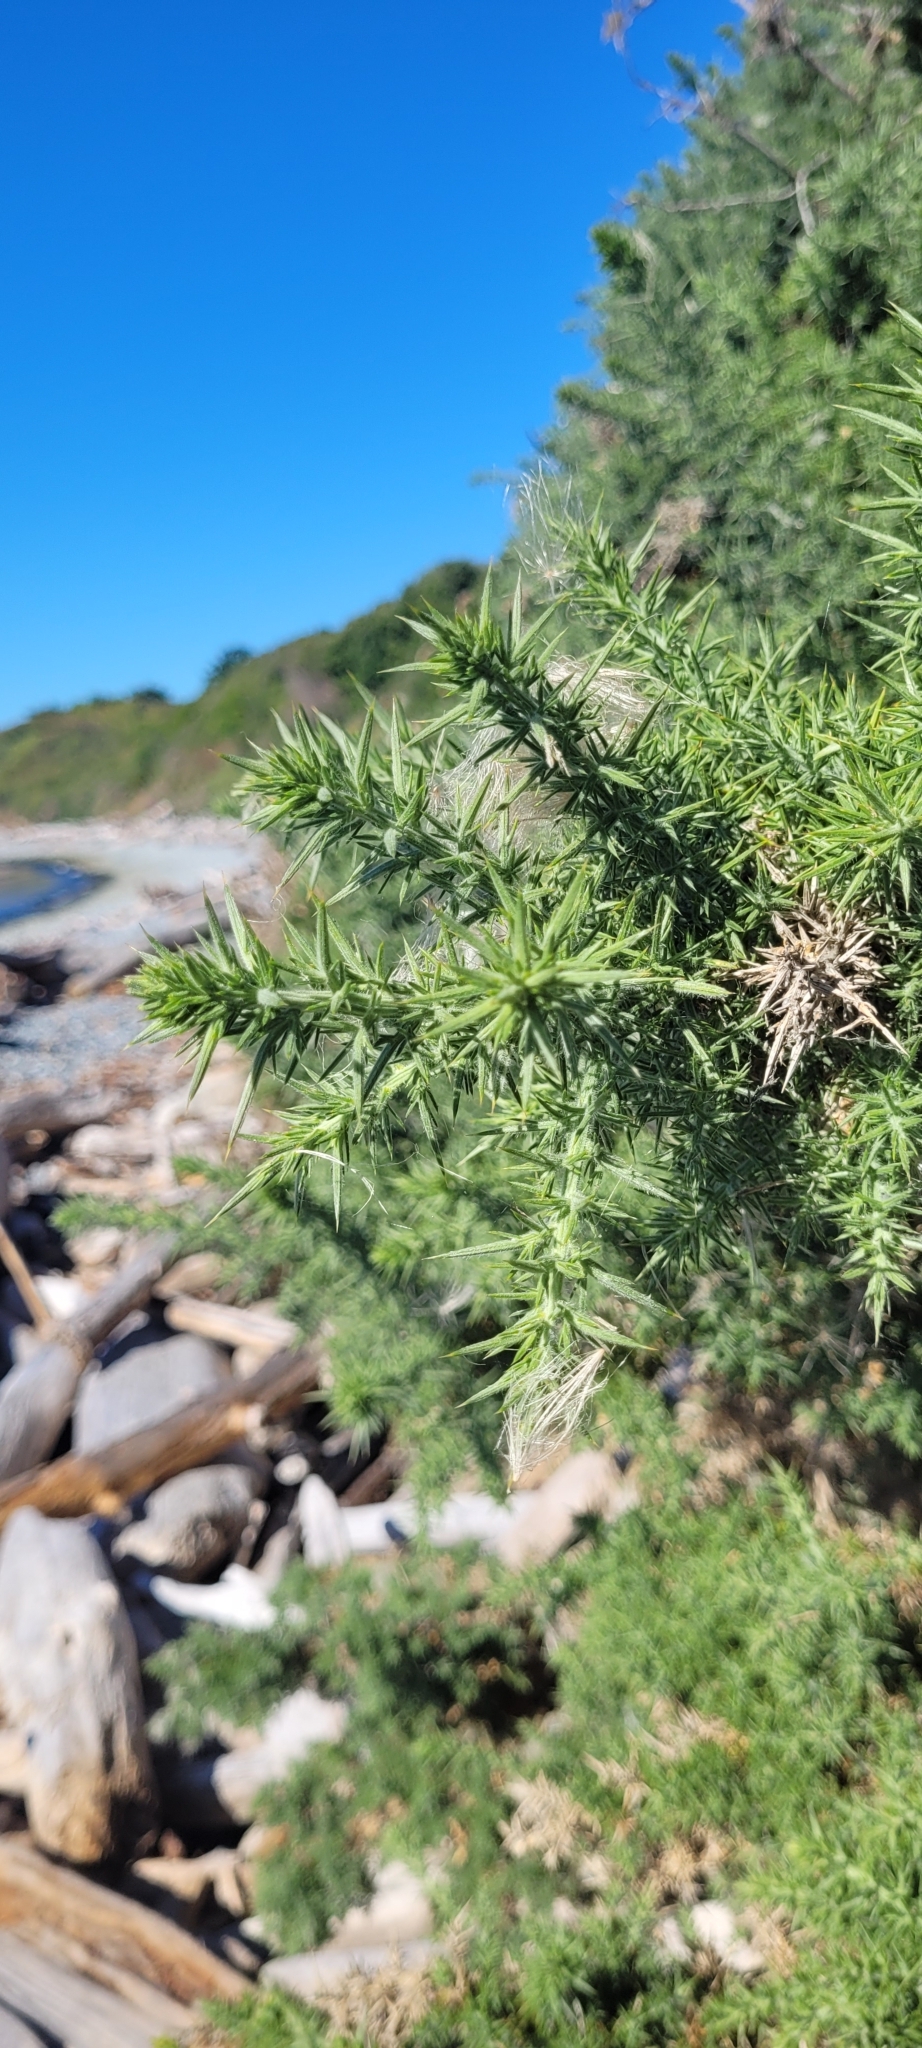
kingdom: Plantae
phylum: Tracheophyta
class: Magnoliopsida
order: Fabales
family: Fabaceae
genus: Ulex
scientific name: Ulex europaeus
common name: Common gorse
